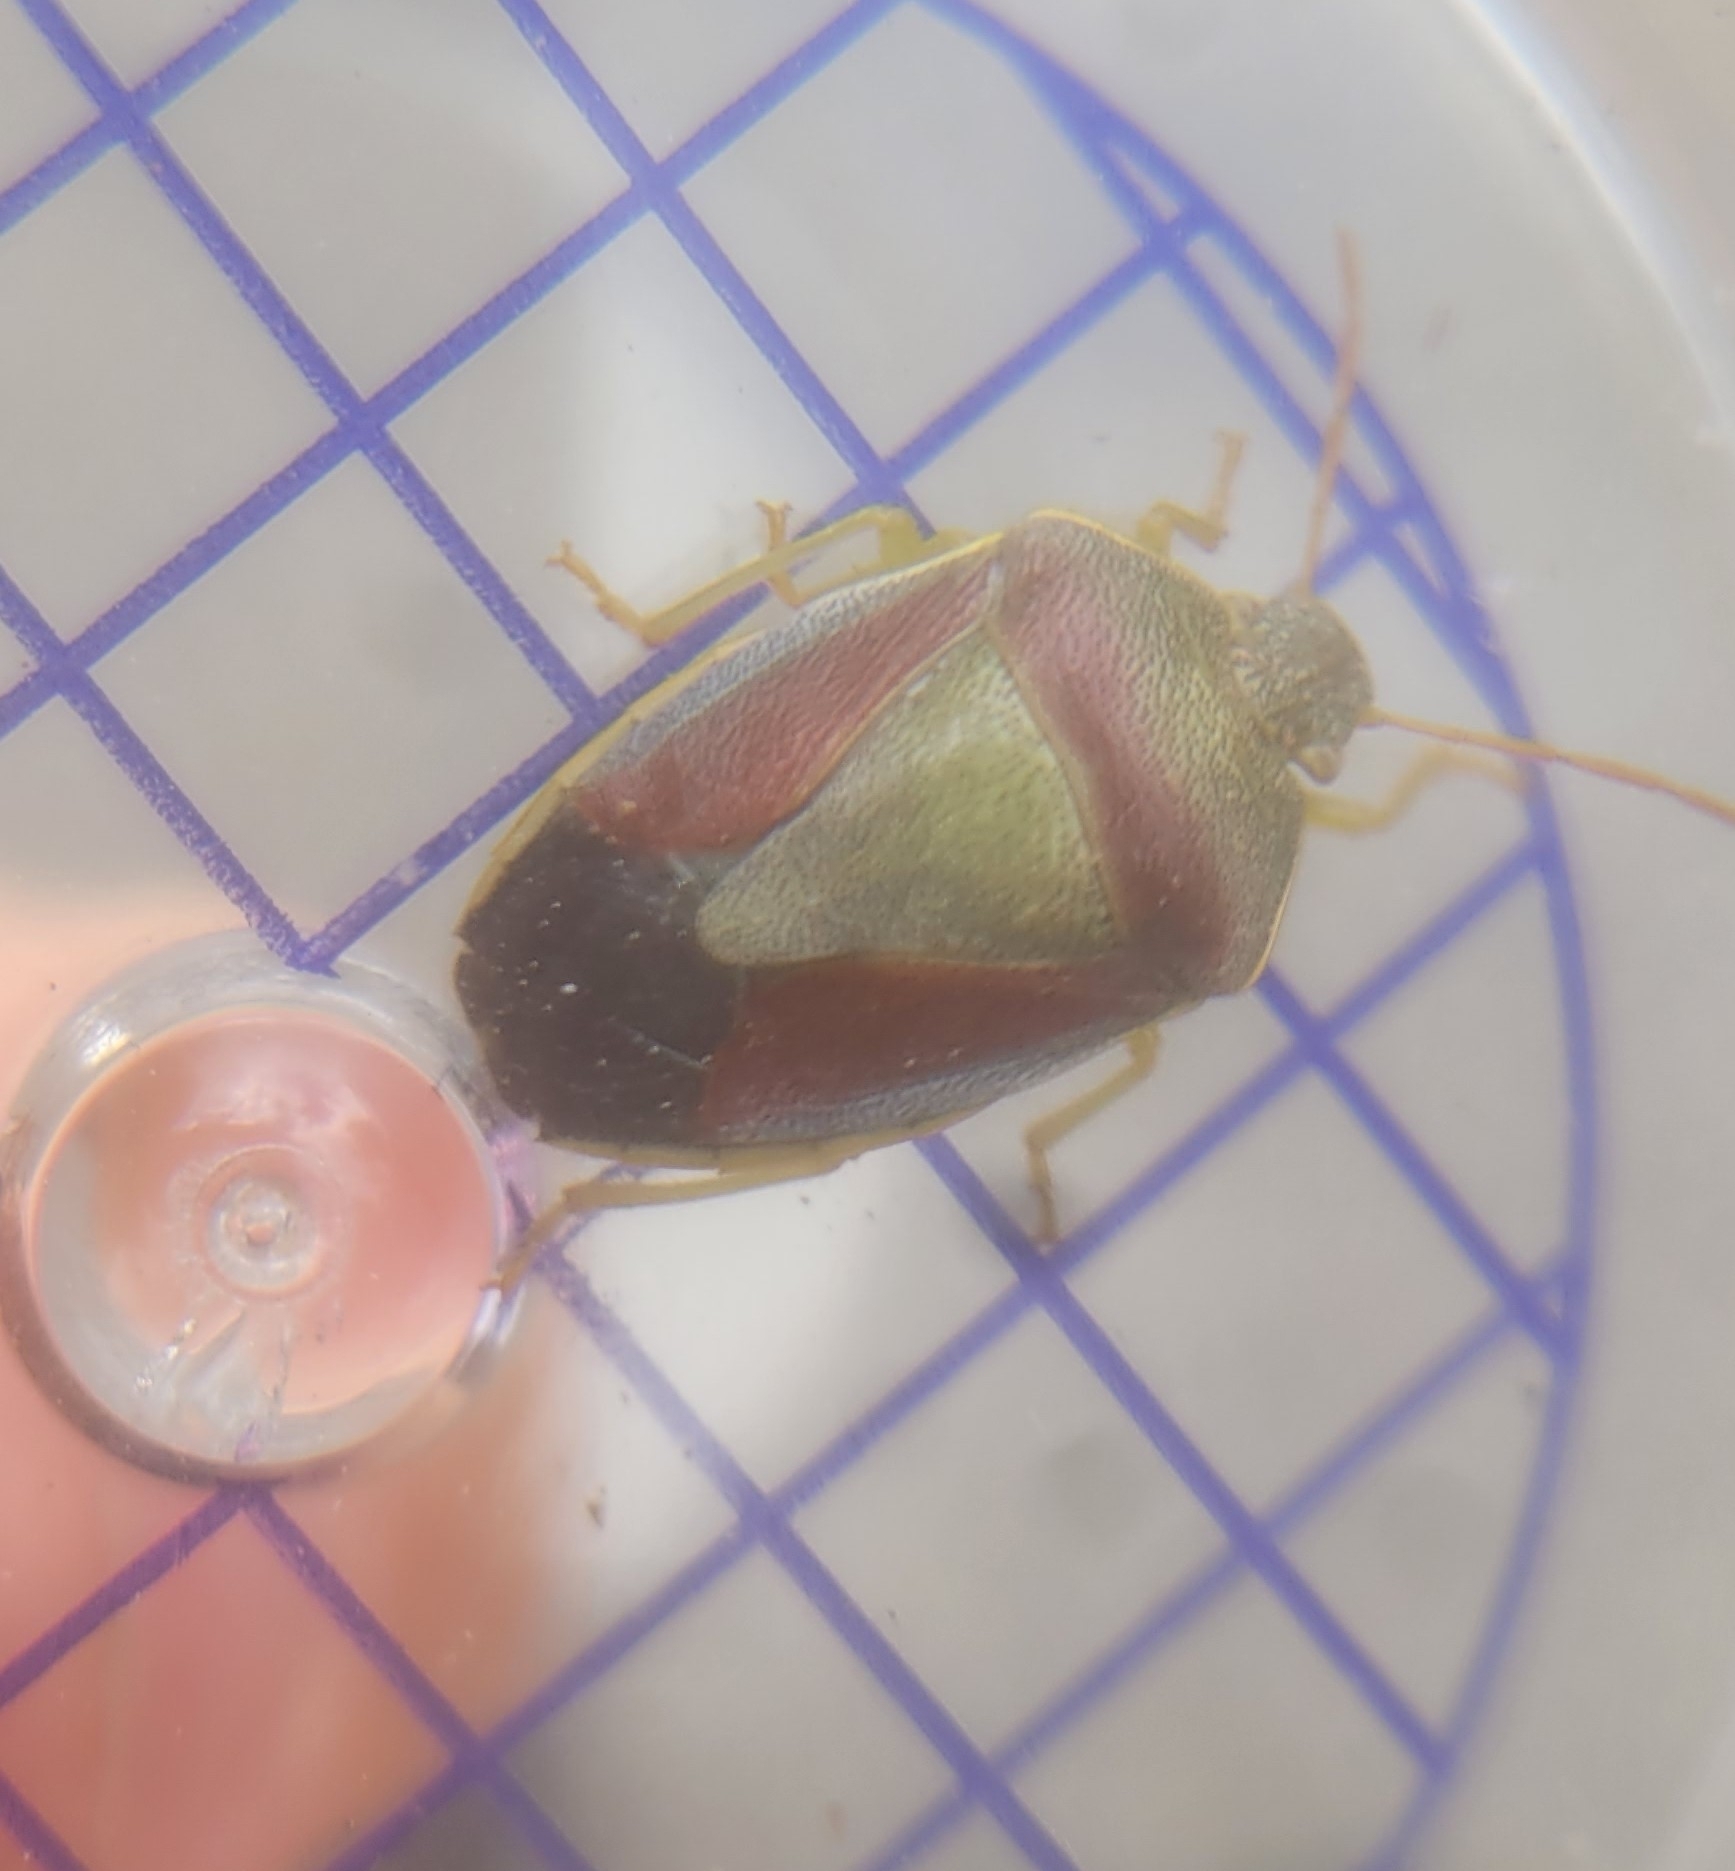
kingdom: Animalia
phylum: Arthropoda
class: Insecta
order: Hemiptera
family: Pentatomidae
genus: Piezodorus
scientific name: Piezodorus lituratus
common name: Stink bug
